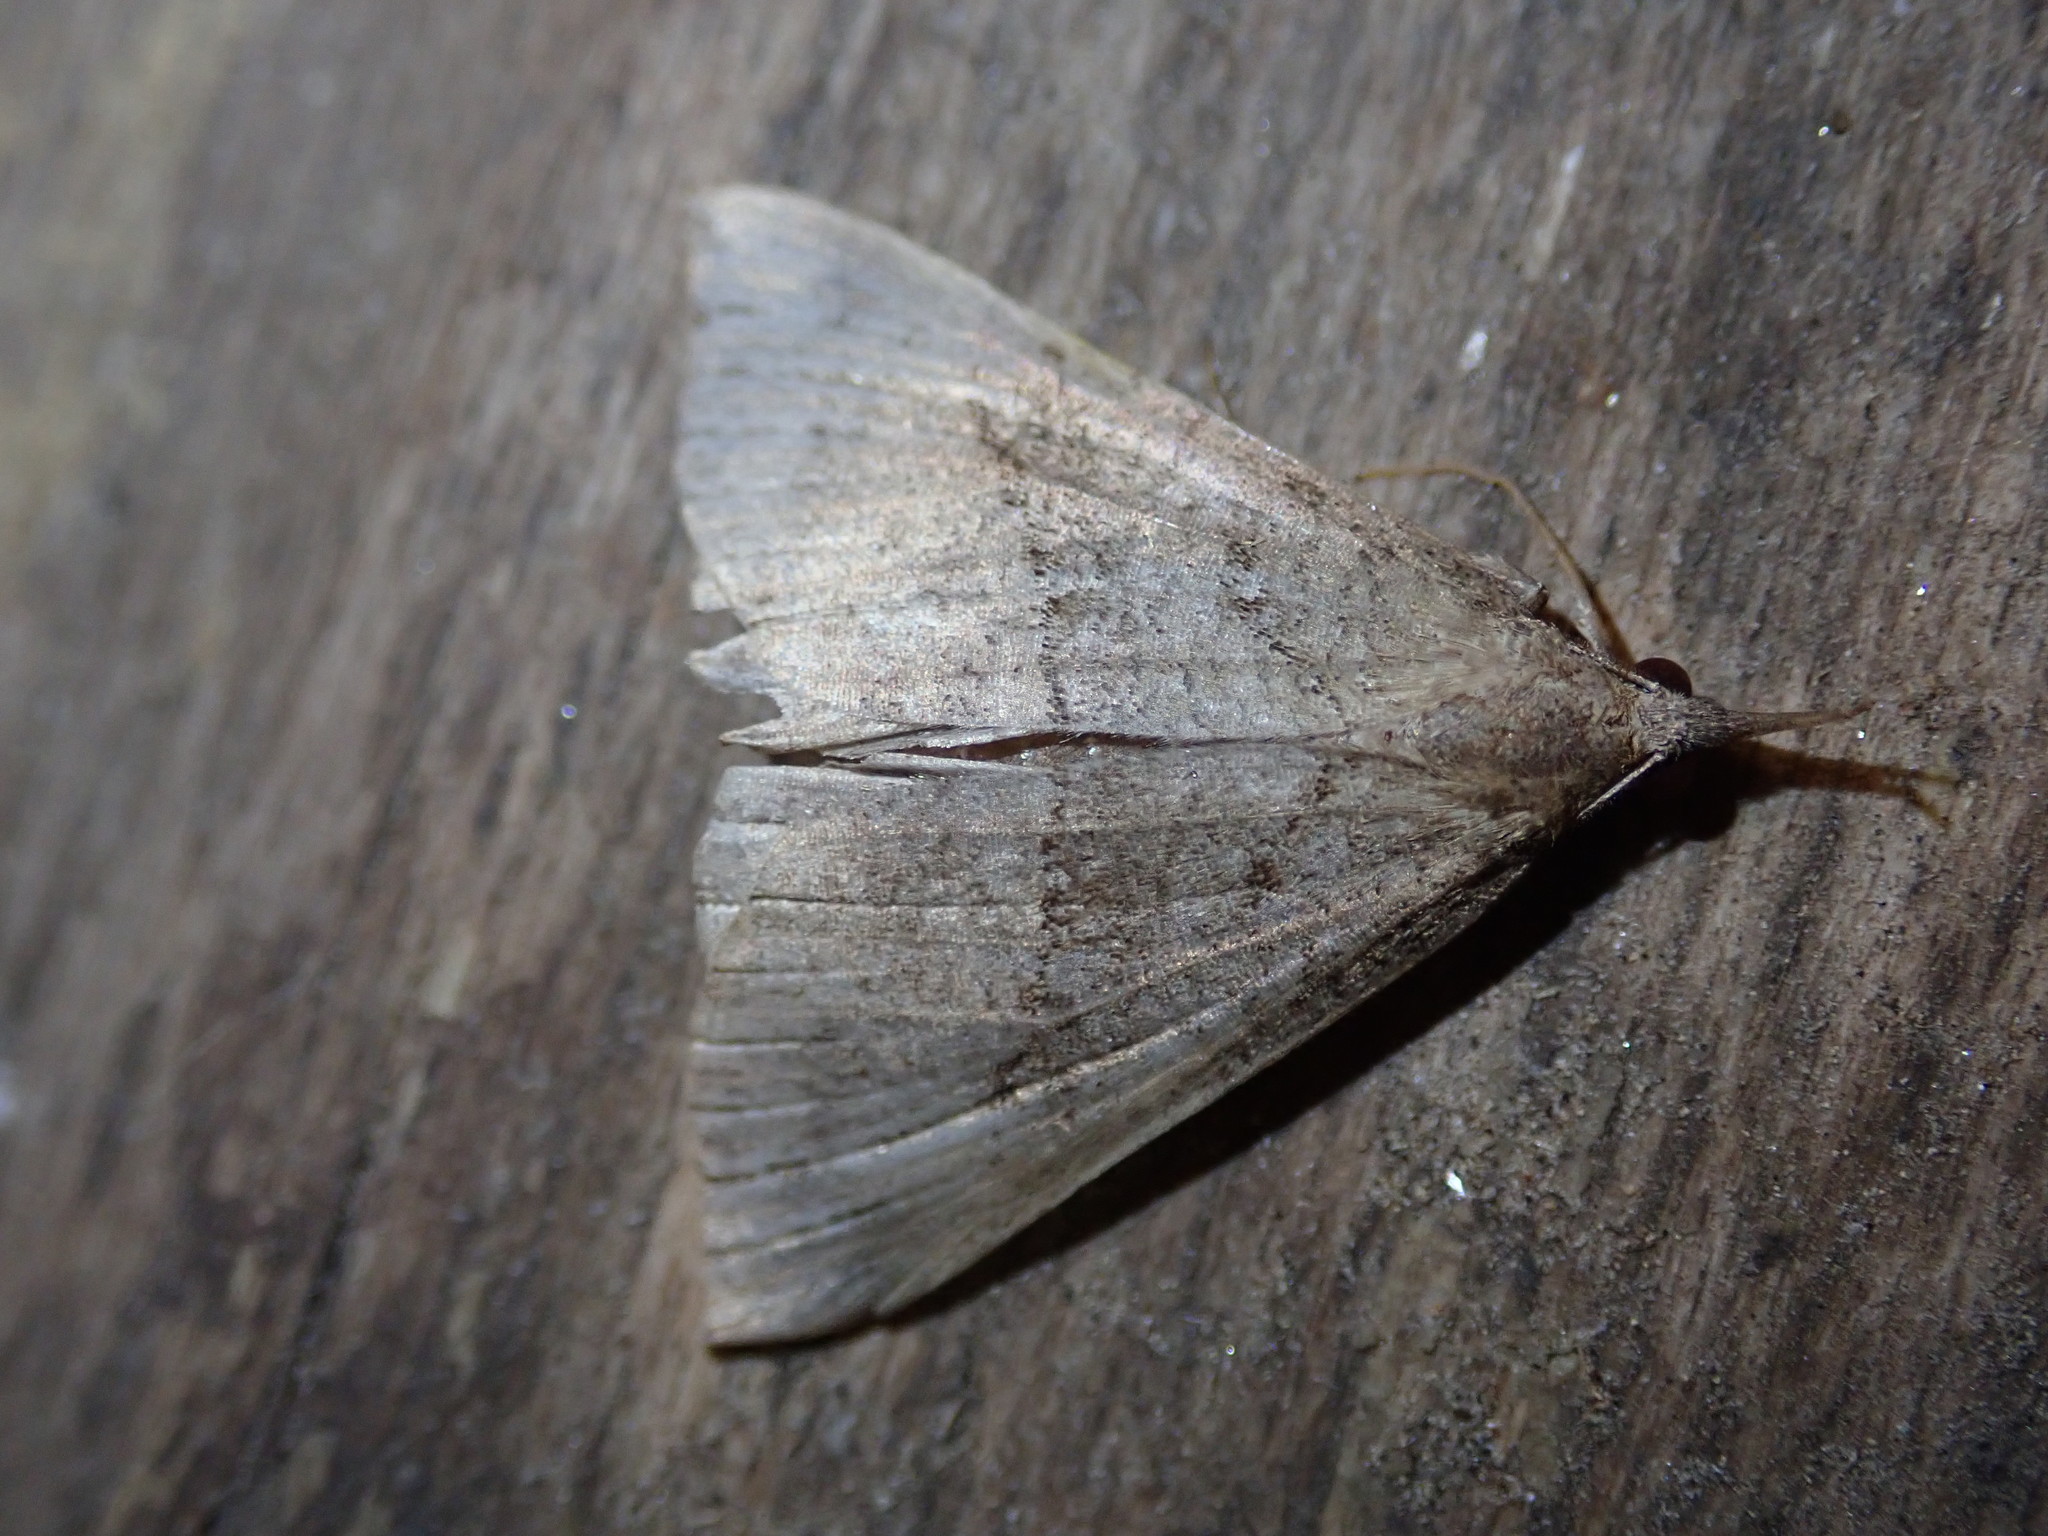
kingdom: Animalia
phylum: Arthropoda
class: Insecta
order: Lepidoptera
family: Erebidae
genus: Hypena
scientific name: Hypena proboscidalis
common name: Snout
